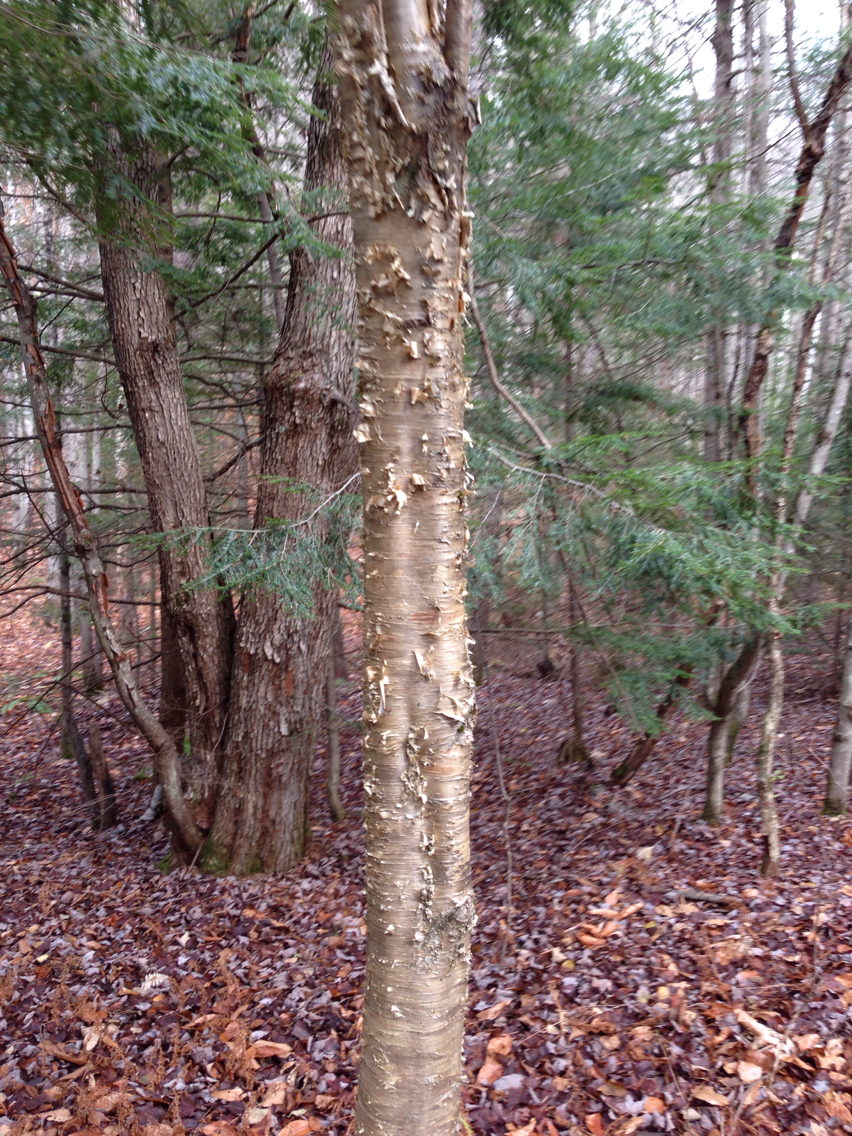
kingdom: Plantae
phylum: Tracheophyta
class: Magnoliopsida
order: Fagales
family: Betulaceae
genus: Betula
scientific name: Betula alleghaniensis
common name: Yellow birch
